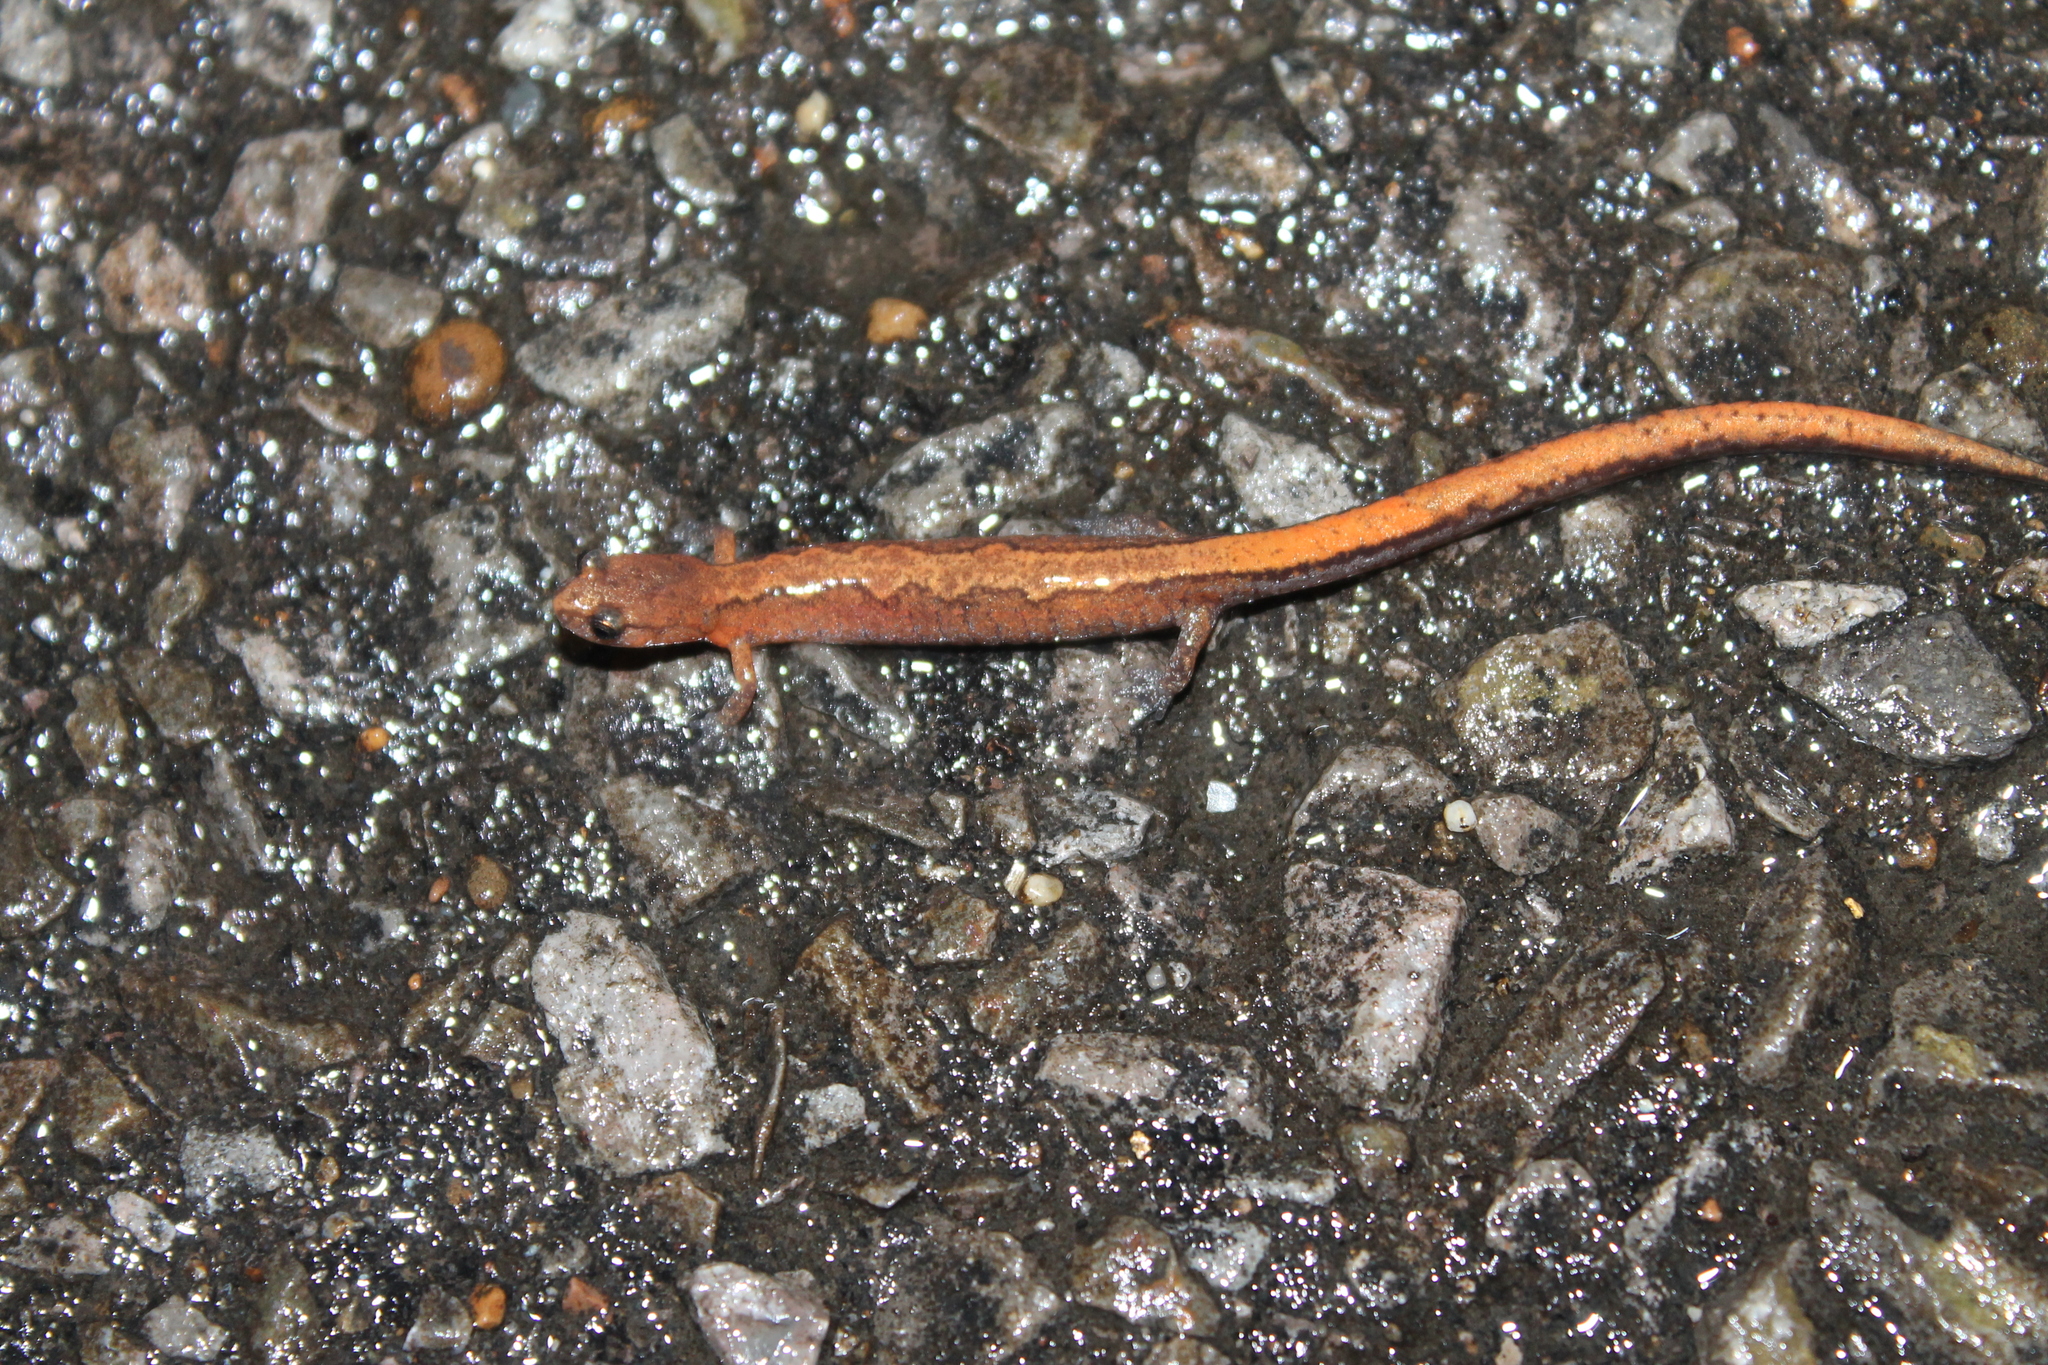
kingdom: Animalia
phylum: Chordata
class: Amphibia
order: Caudata
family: Plethodontidae
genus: Plethodon
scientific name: Plethodon dorsalis
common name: Northern zigzag salamander
